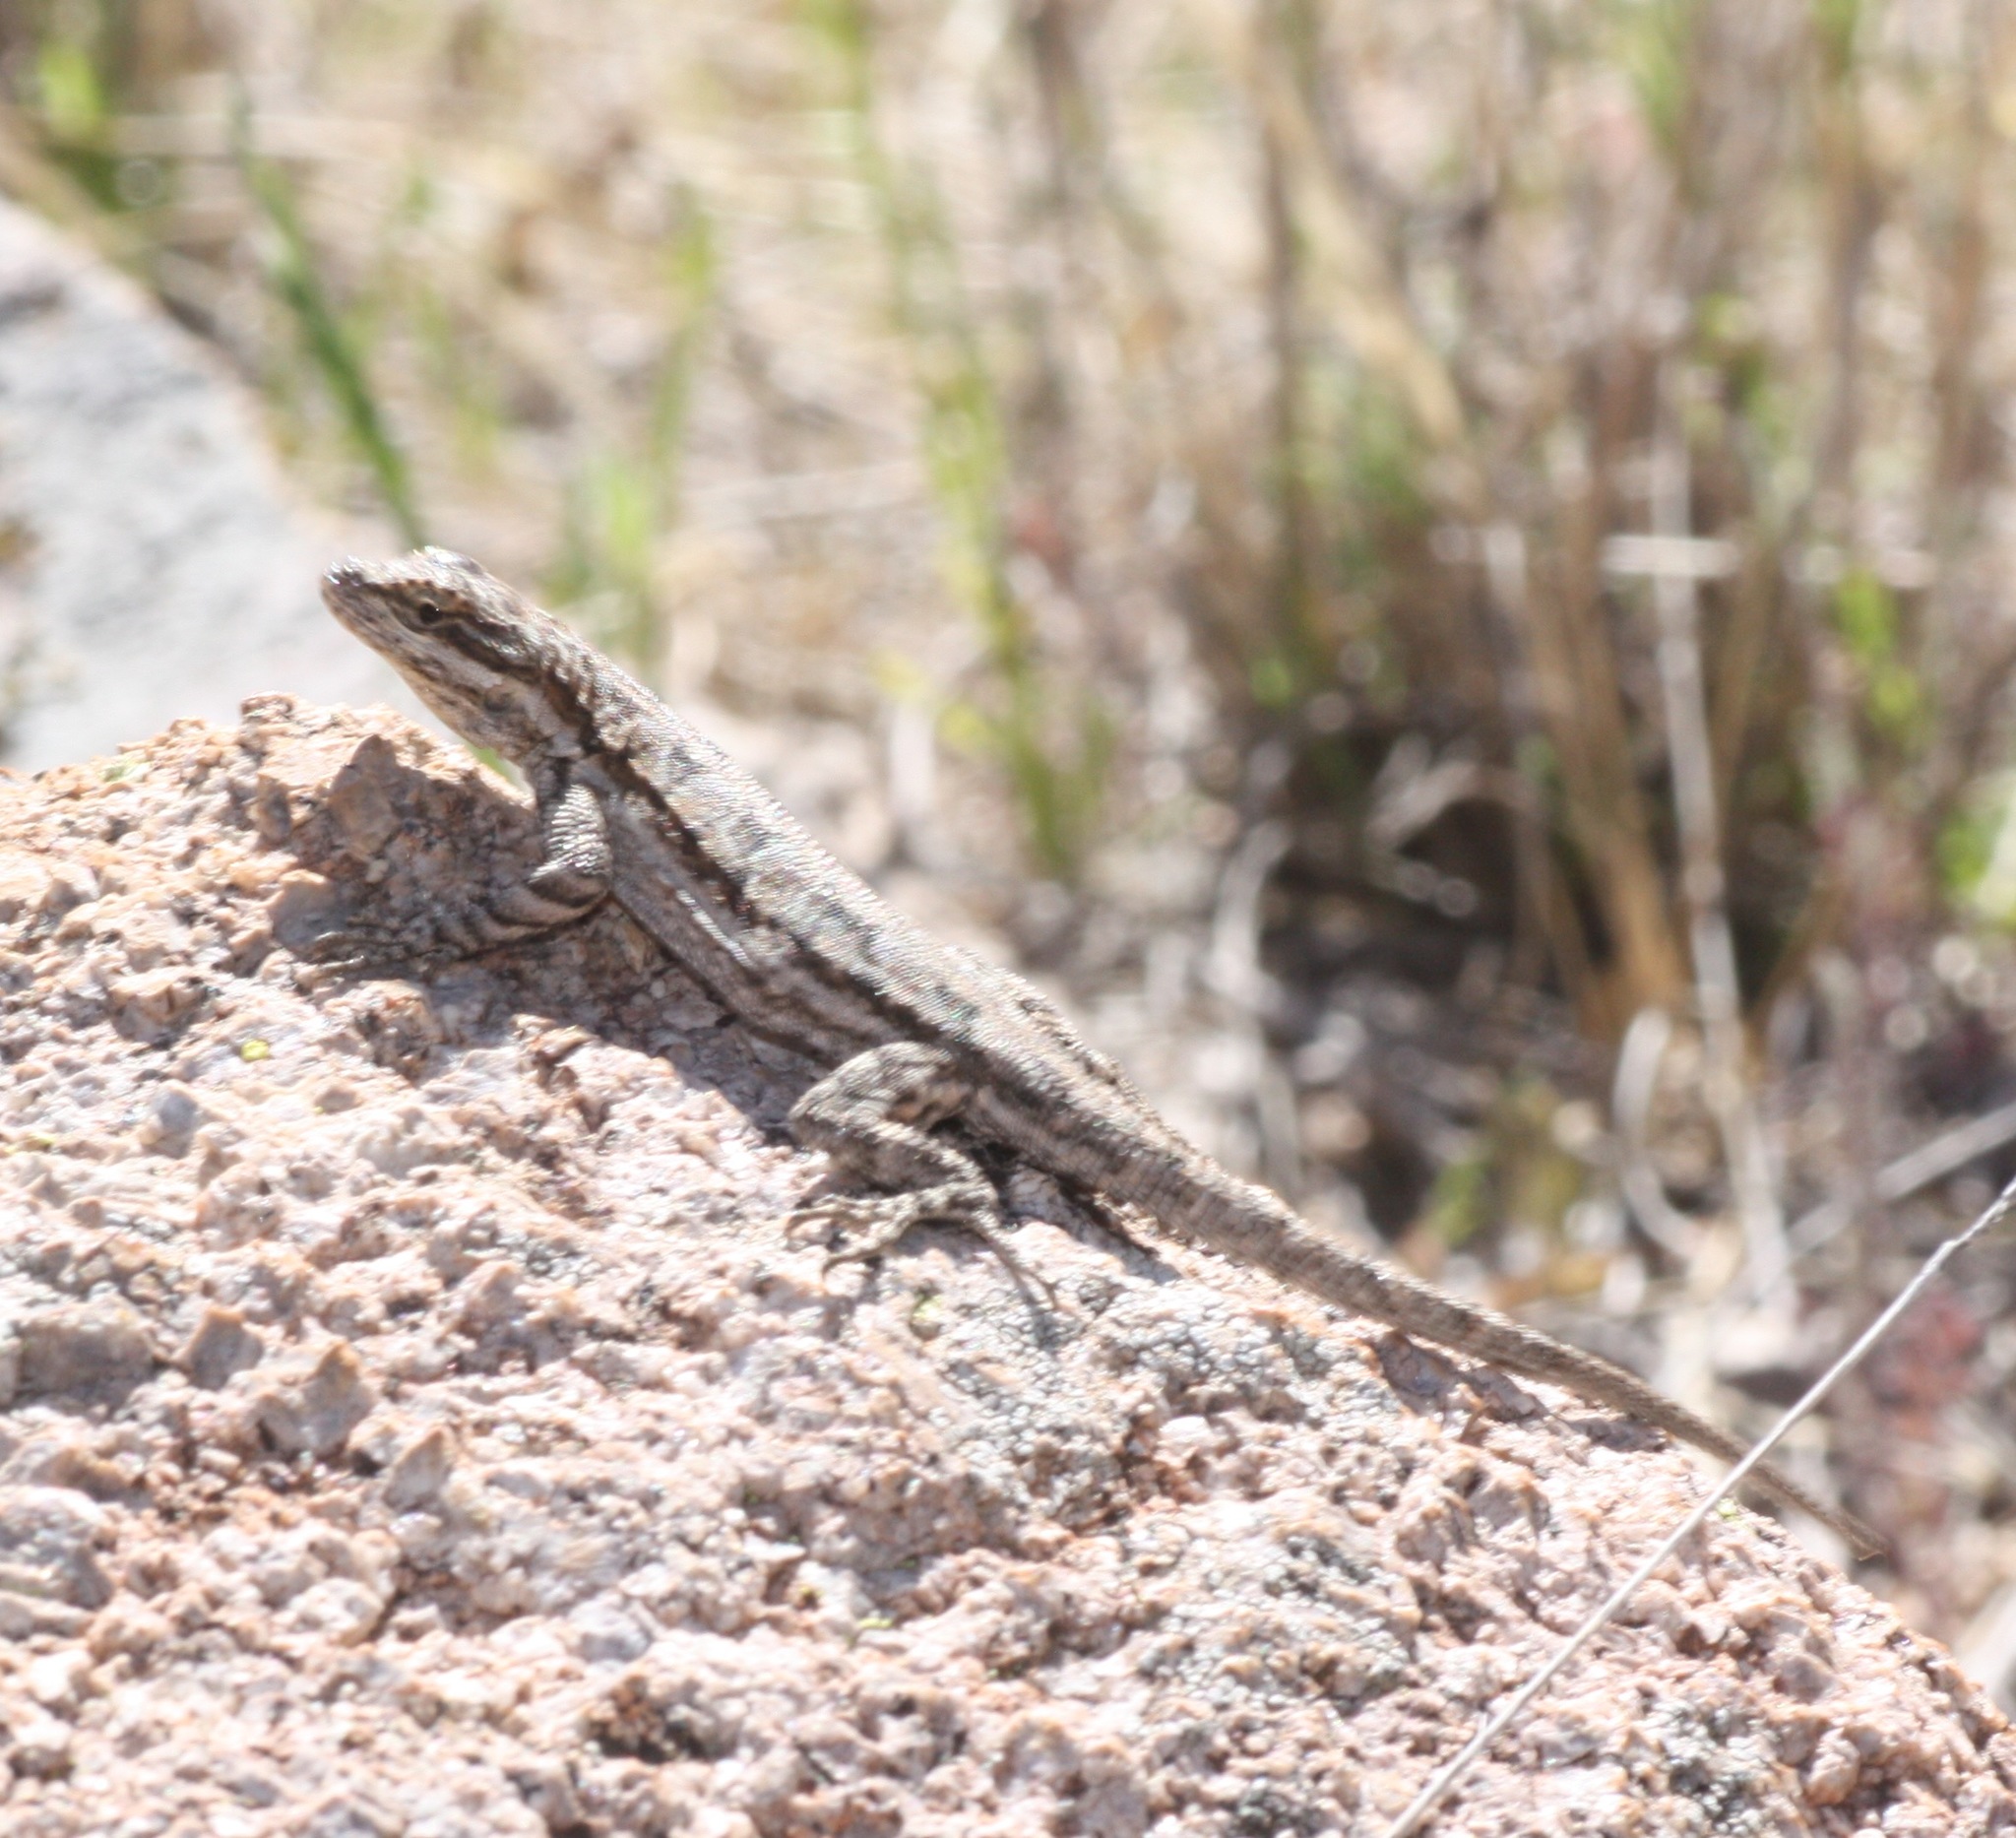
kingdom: Animalia
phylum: Chordata
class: Squamata
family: Phrynosomatidae
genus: Urosaurus
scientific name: Urosaurus ornatus
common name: Ornate tree lizard
